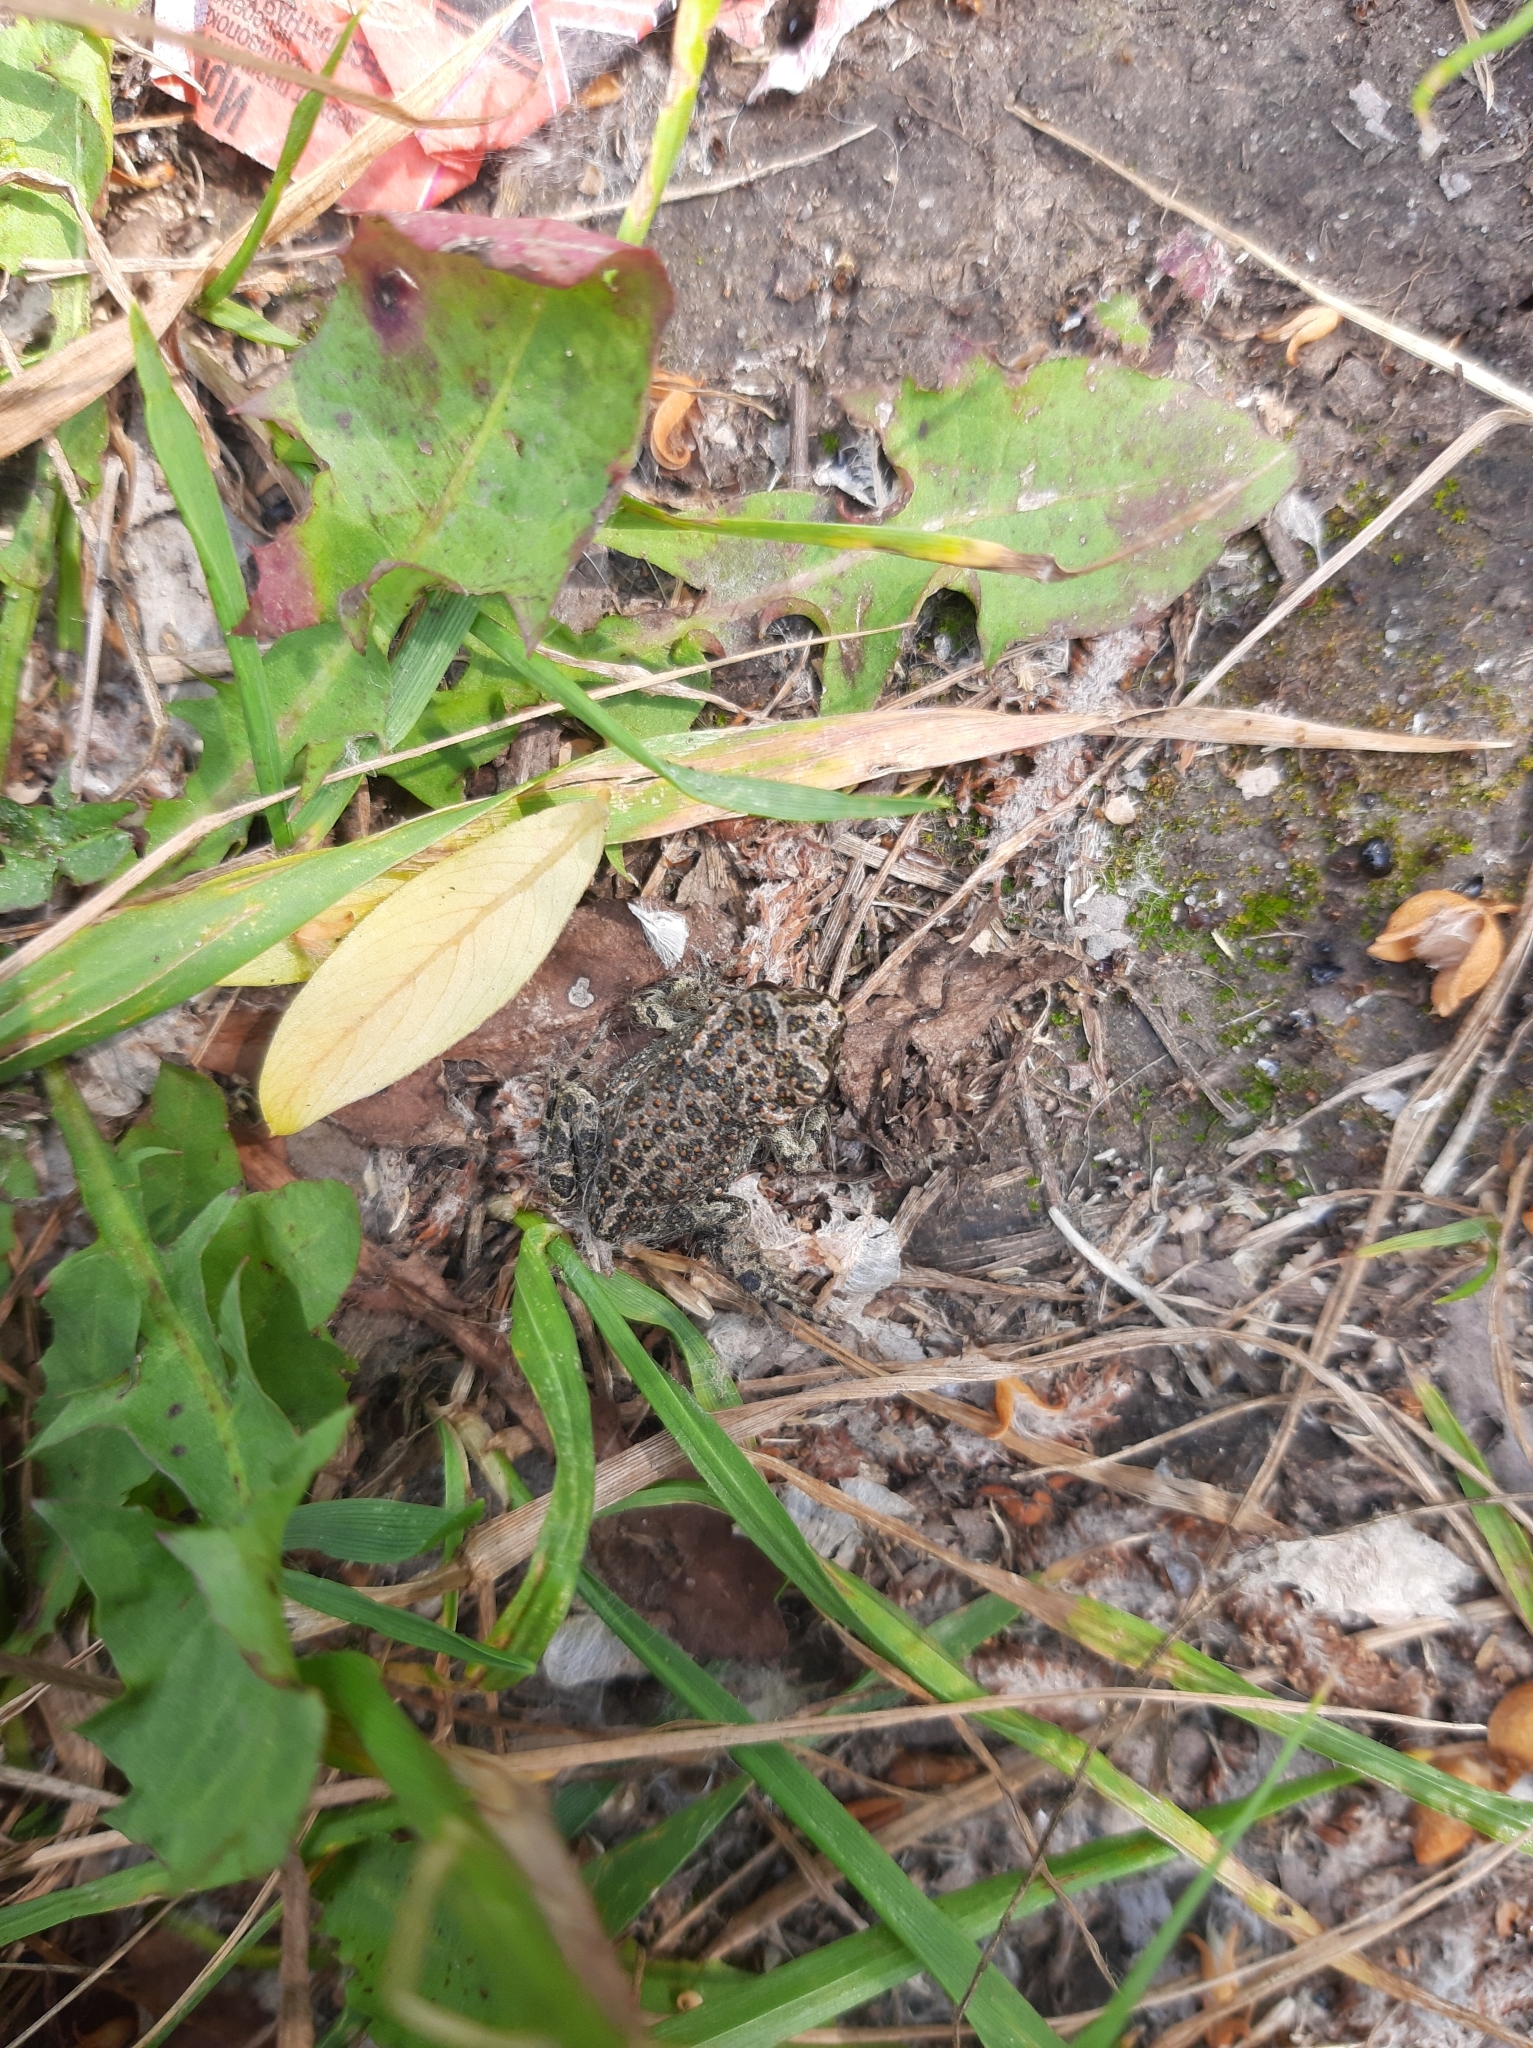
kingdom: Animalia
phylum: Chordata
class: Amphibia
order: Anura
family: Bufonidae
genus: Bufotes
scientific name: Bufotes viridis
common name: European green toad
